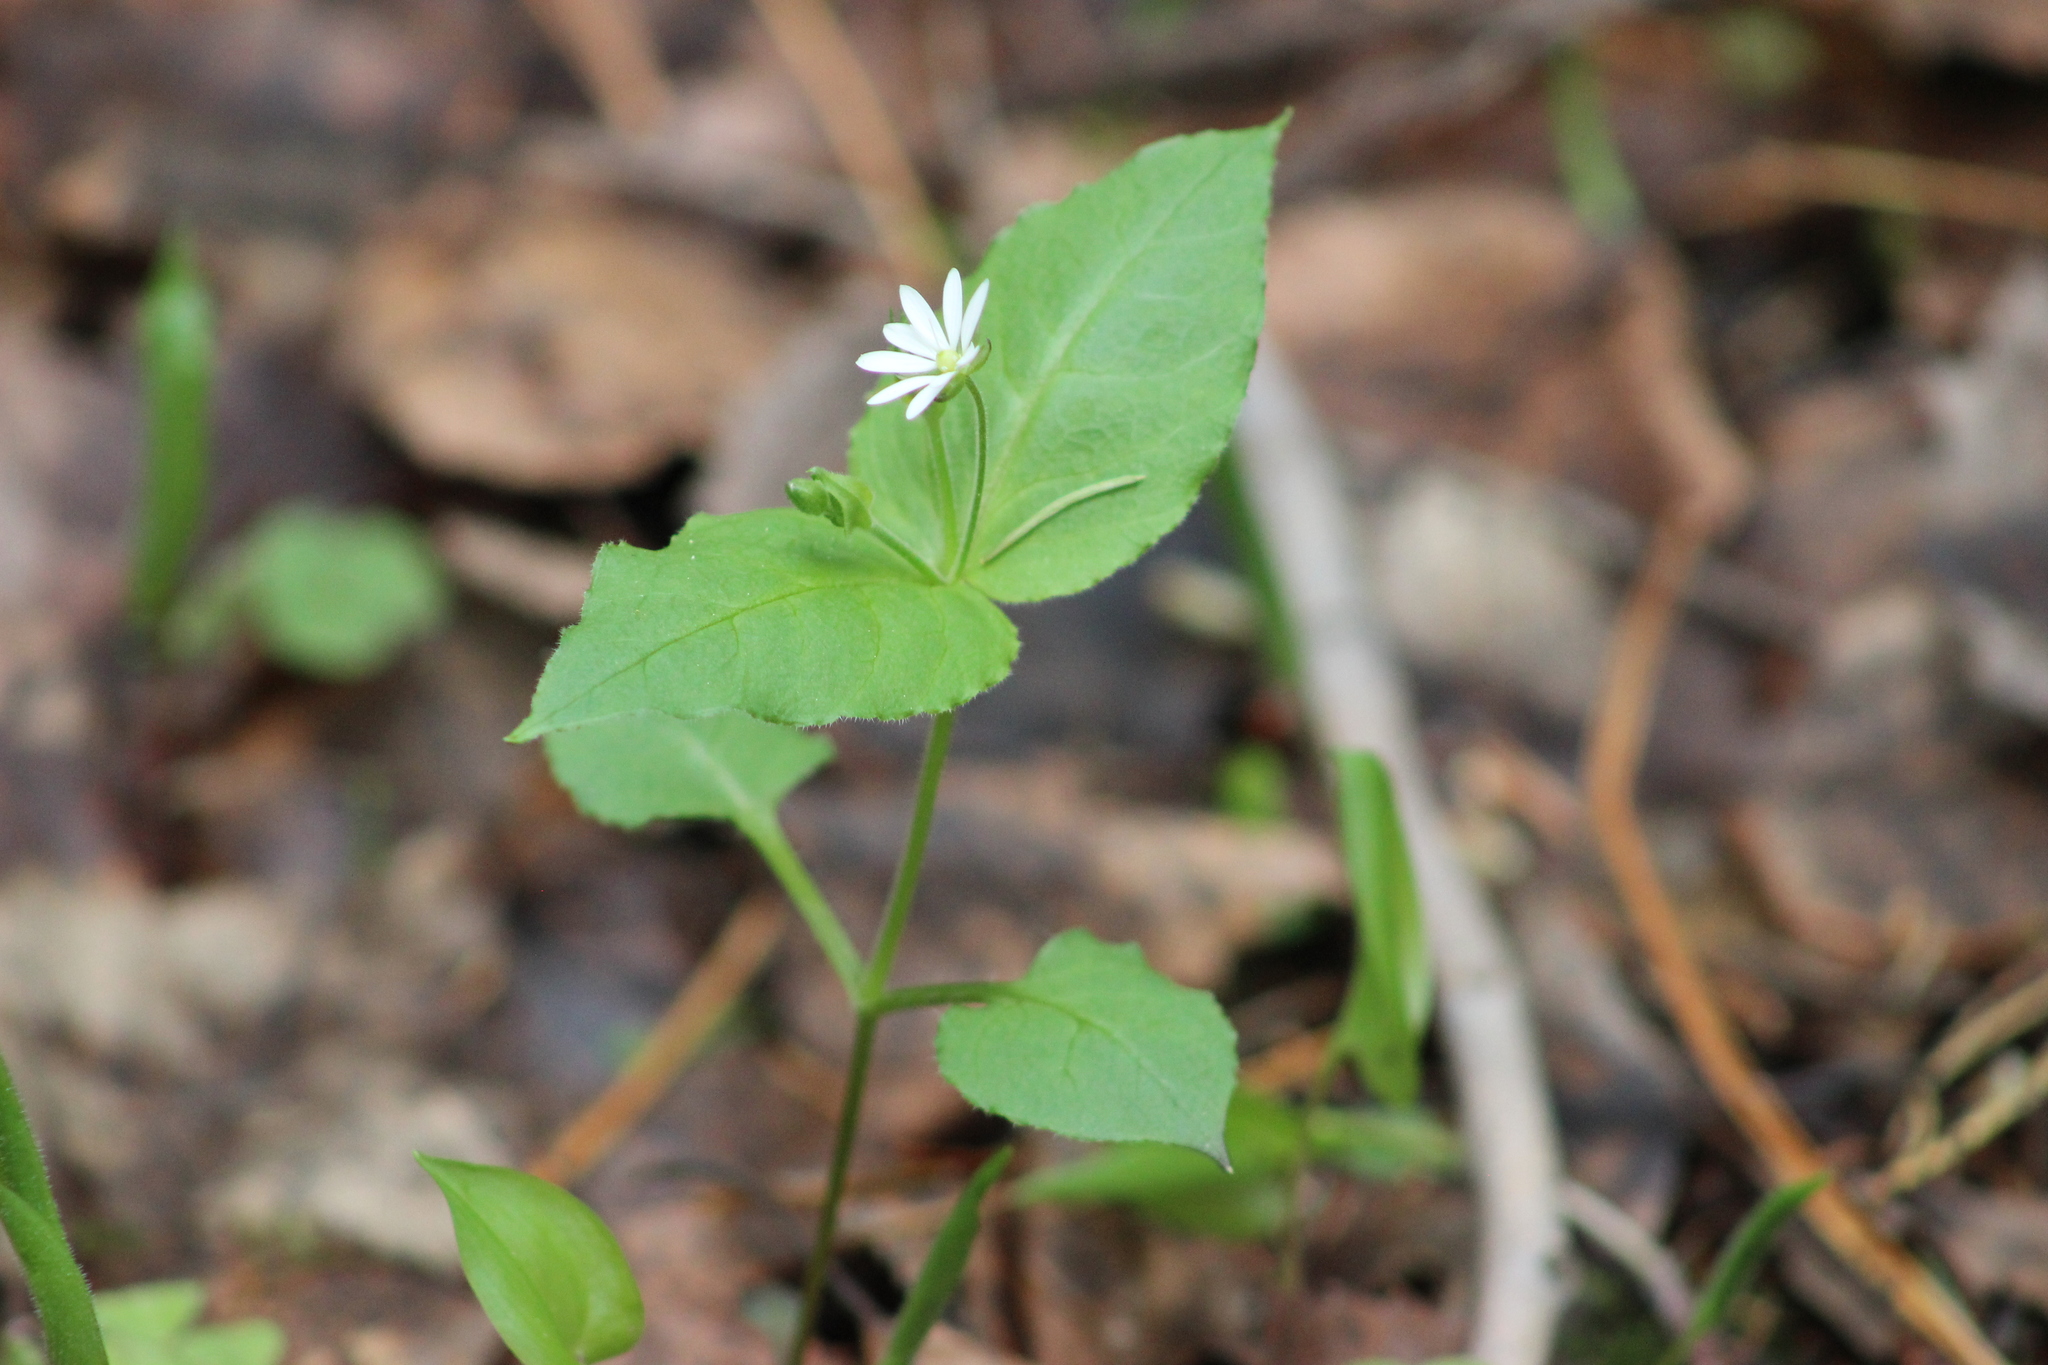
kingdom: Plantae
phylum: Tracheophyta
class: Magnoliopsida
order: Caryophyllales
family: Caryophyllaceae
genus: Stellaria
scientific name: Stellaria bungeana
